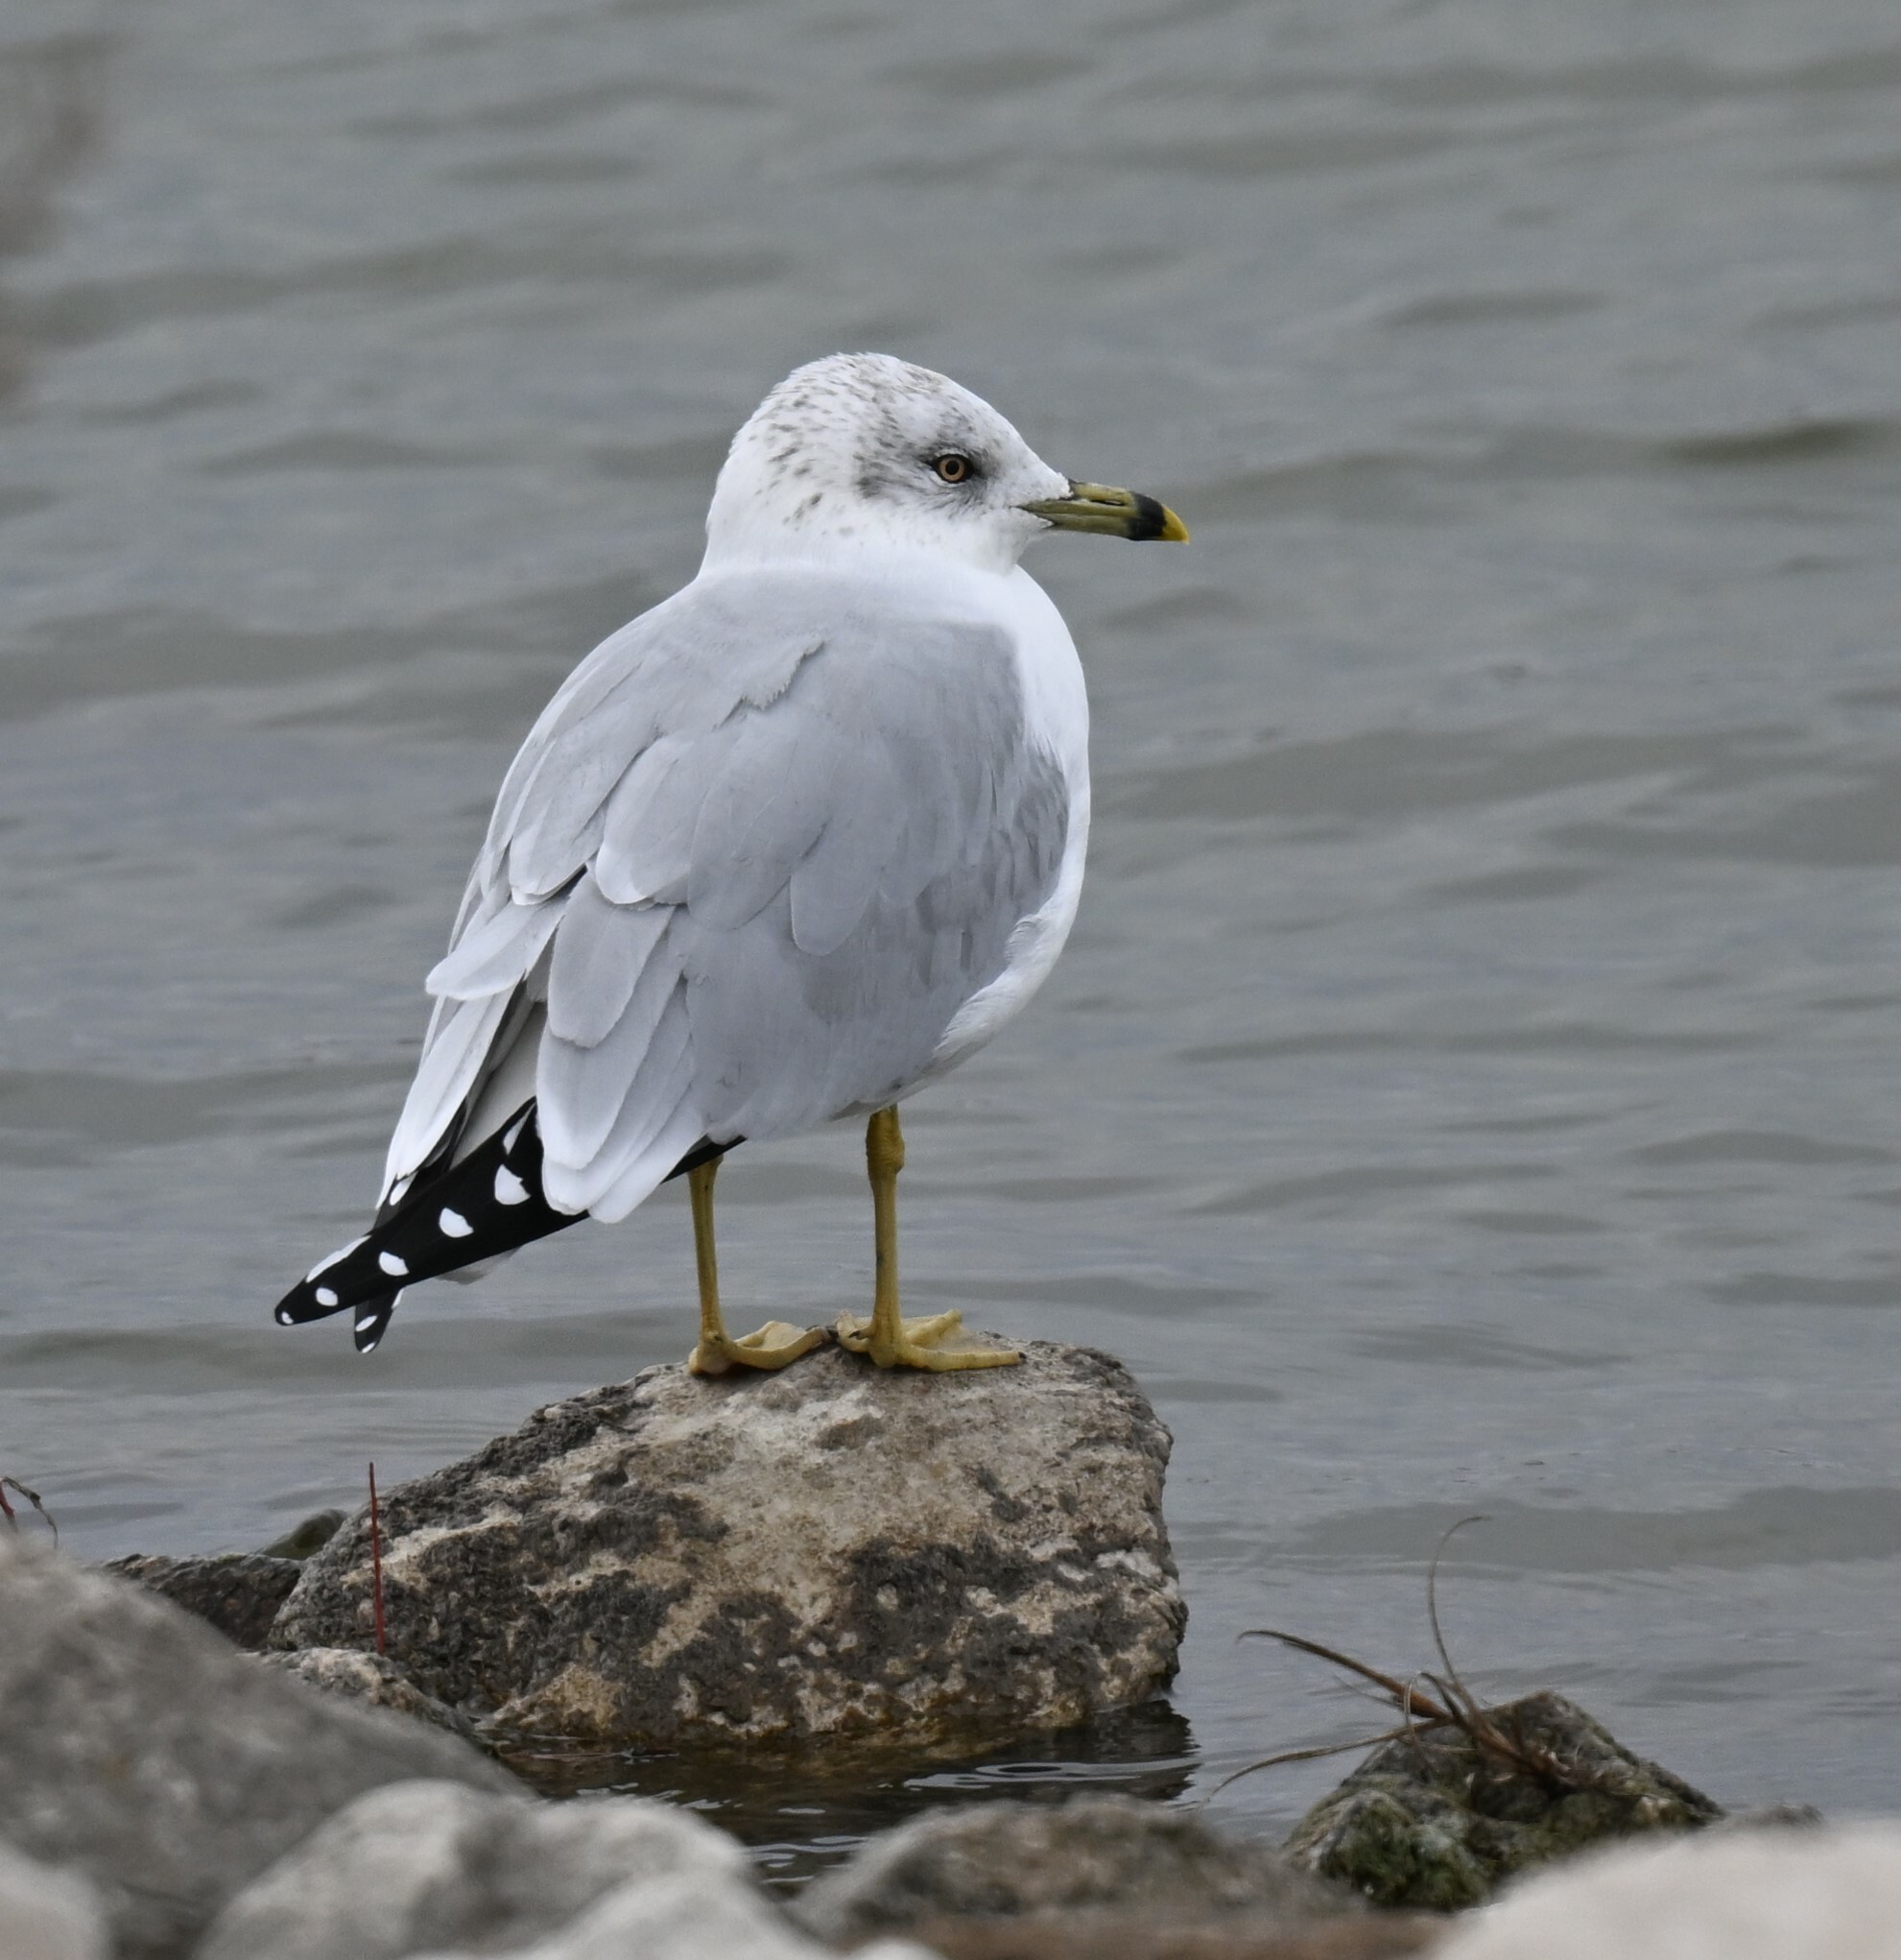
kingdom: Animalia
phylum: Chordata
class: Aves
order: Charadriiformes
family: Laridae
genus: Larus
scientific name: Larus delawarensis
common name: Ring-billed gull
